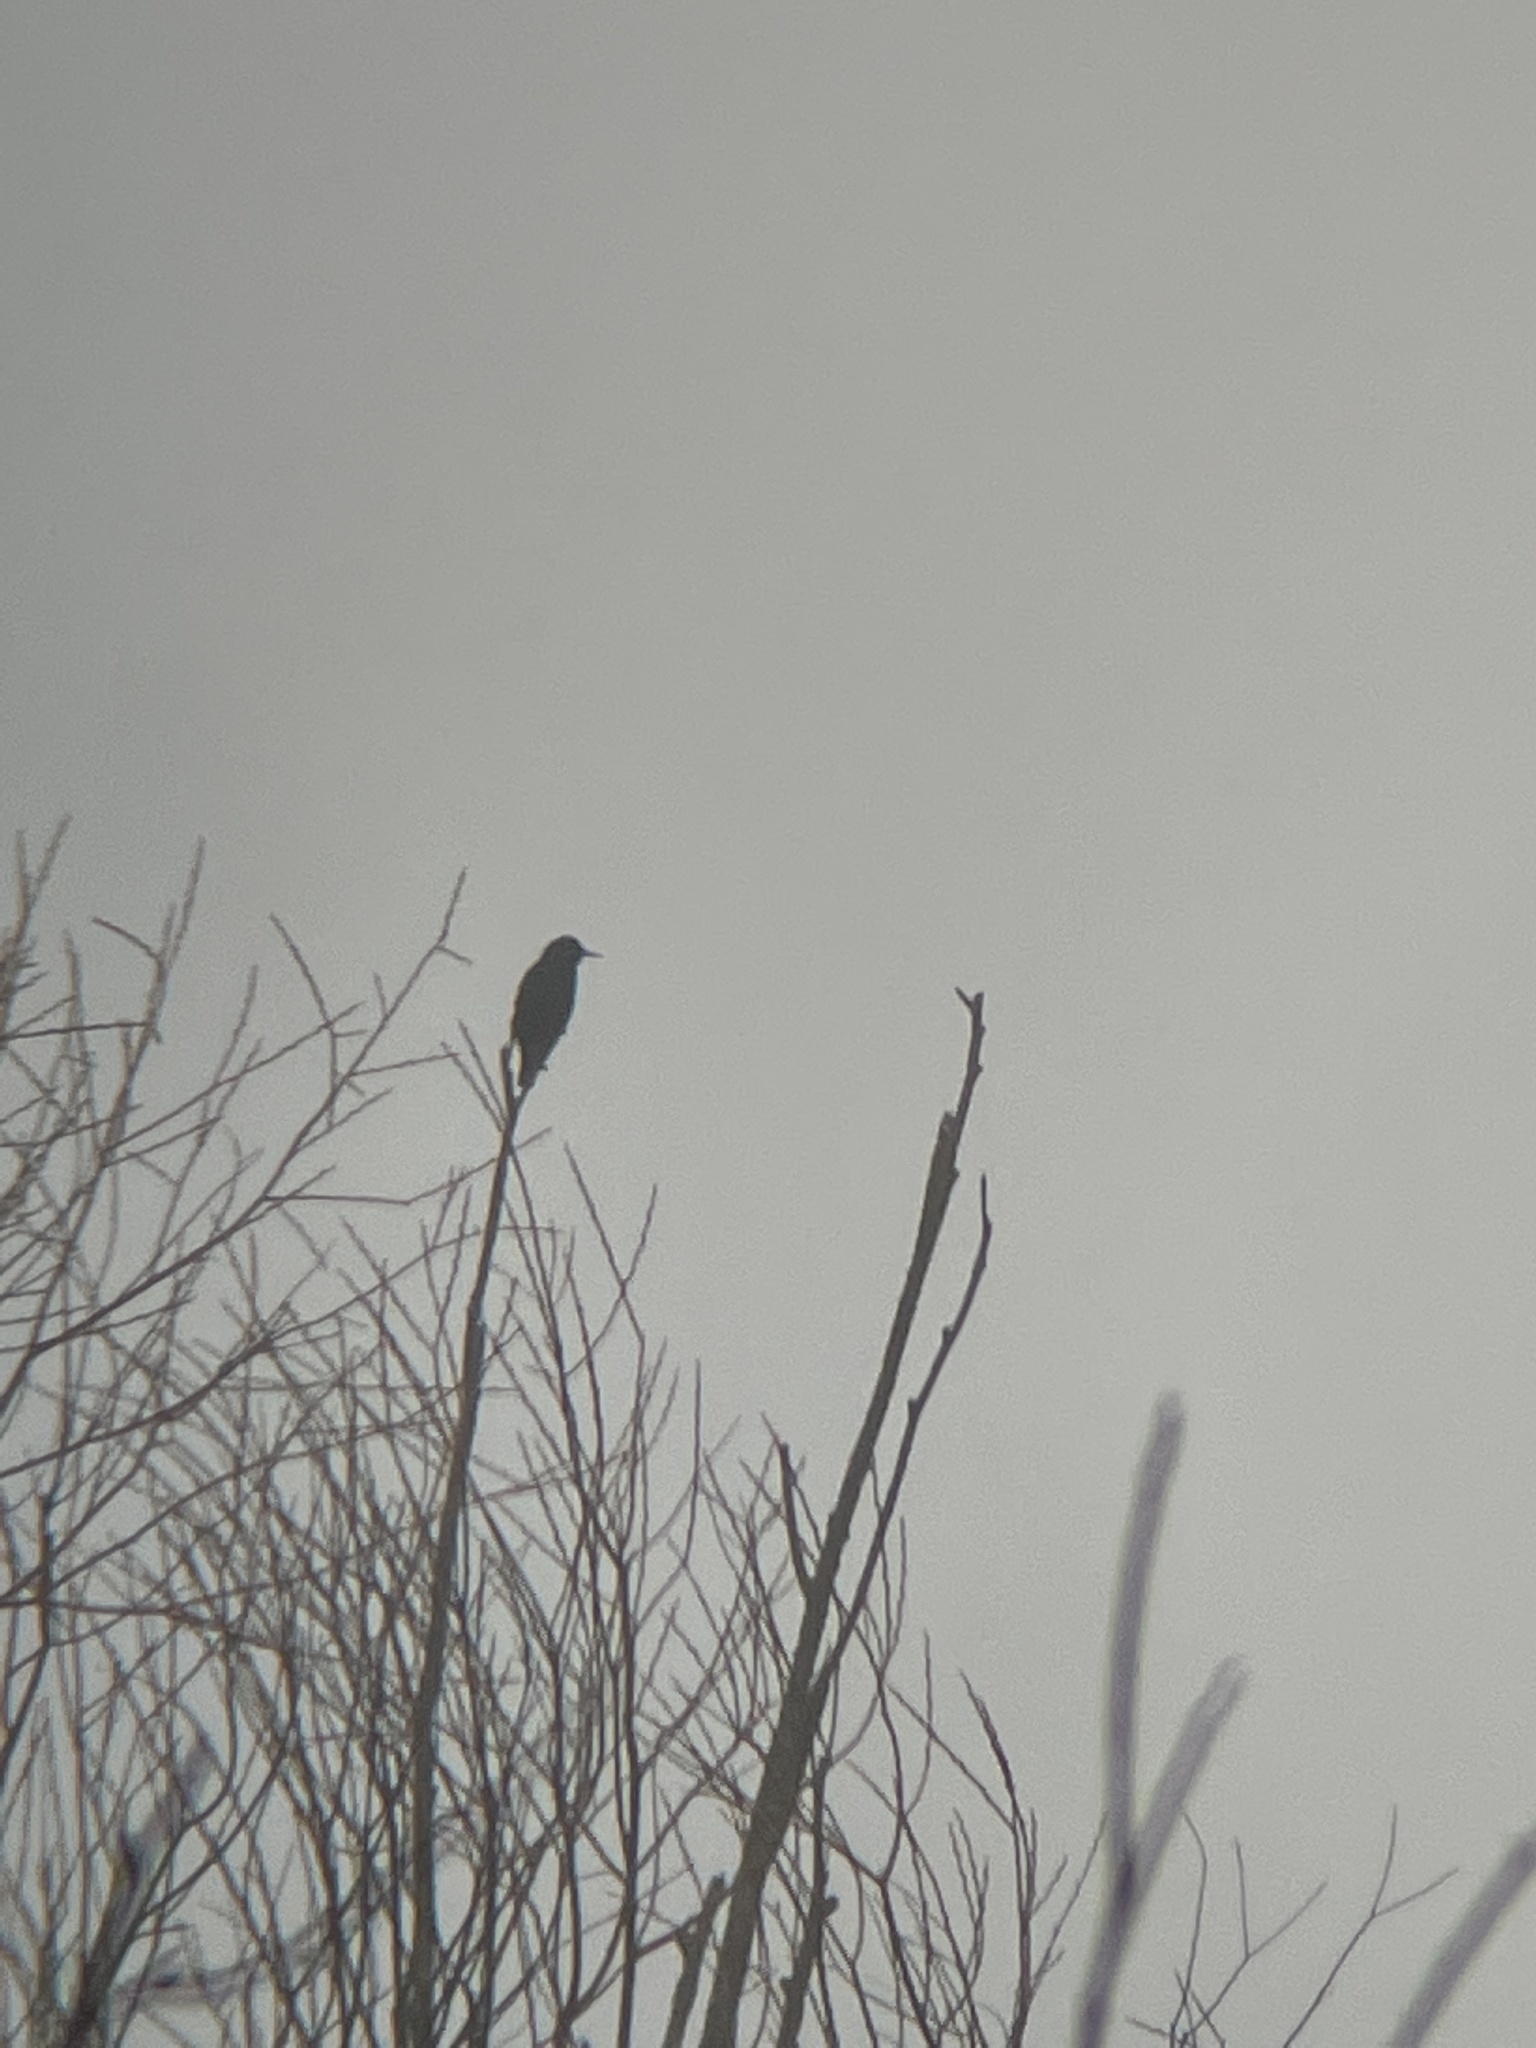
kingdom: Animalia
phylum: Chordata
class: Aves
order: Passeriformes
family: Sturnidae
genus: Sturnus
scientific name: Sturnus vulgaris
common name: Common starling
